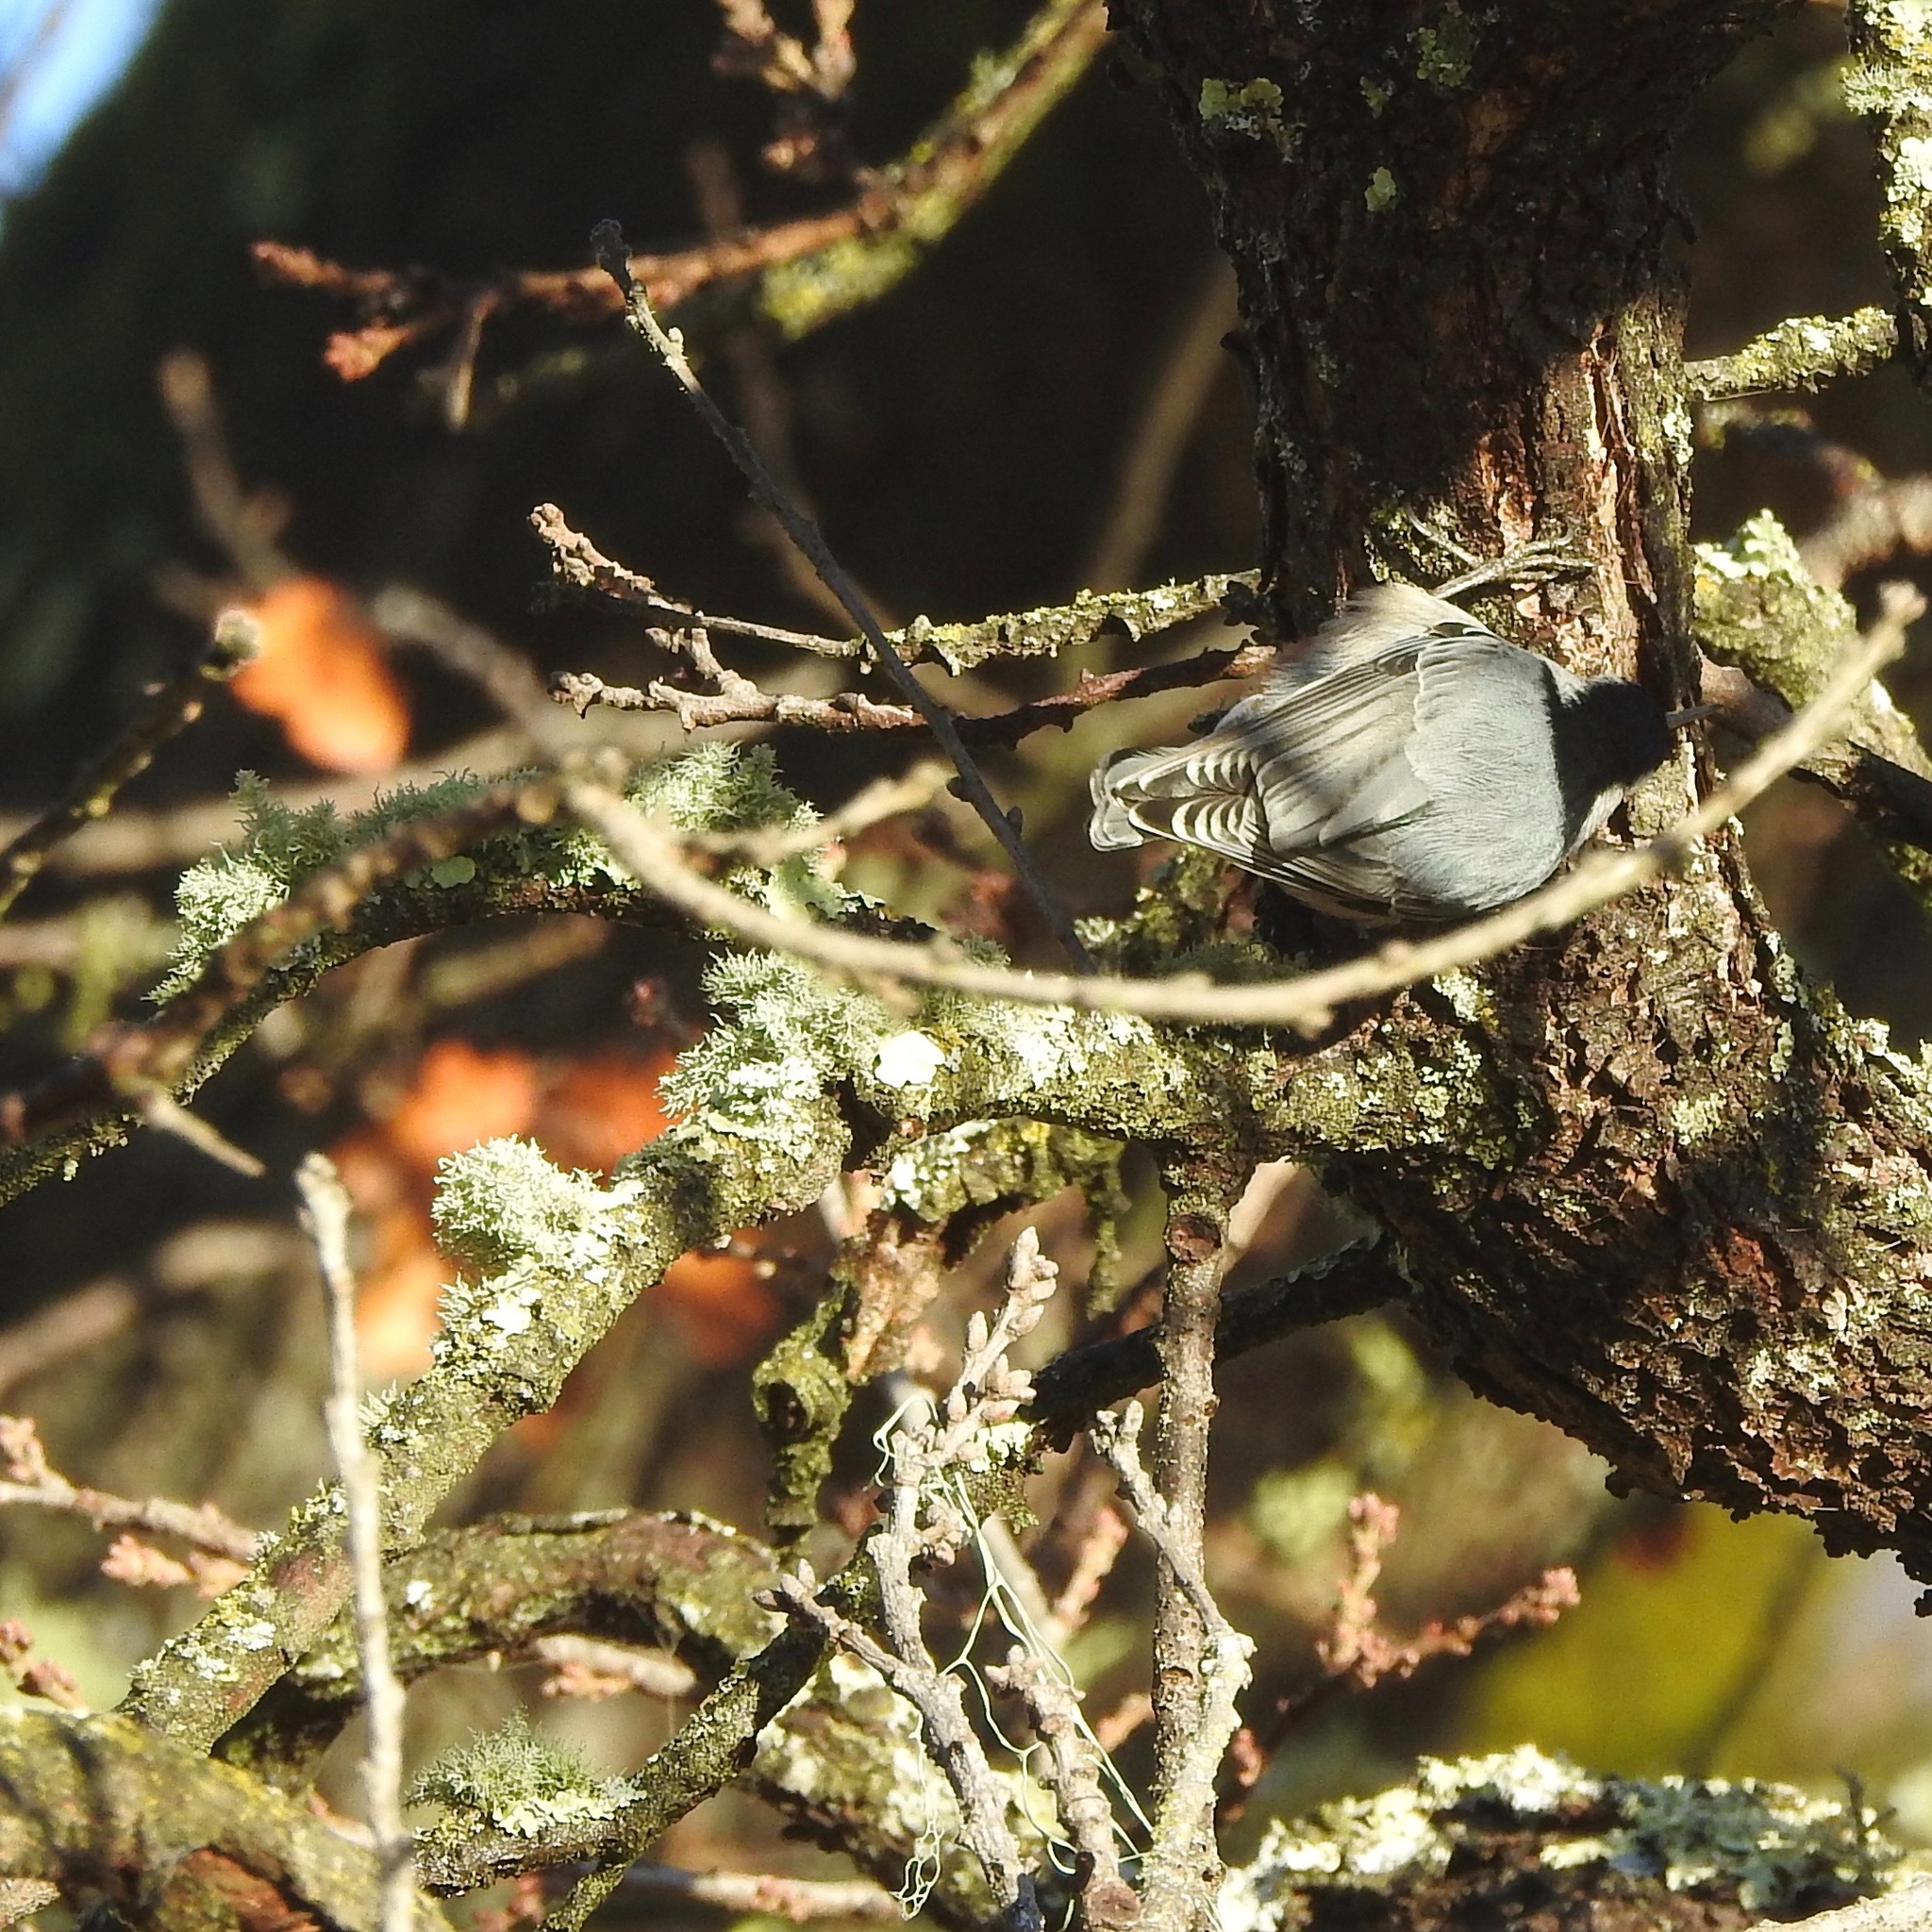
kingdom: Animalia
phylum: Chordata
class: Aves
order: Passeriformes
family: Sittidae
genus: Sitta
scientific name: Sitta carolinensis
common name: White-breasted nuthatch
